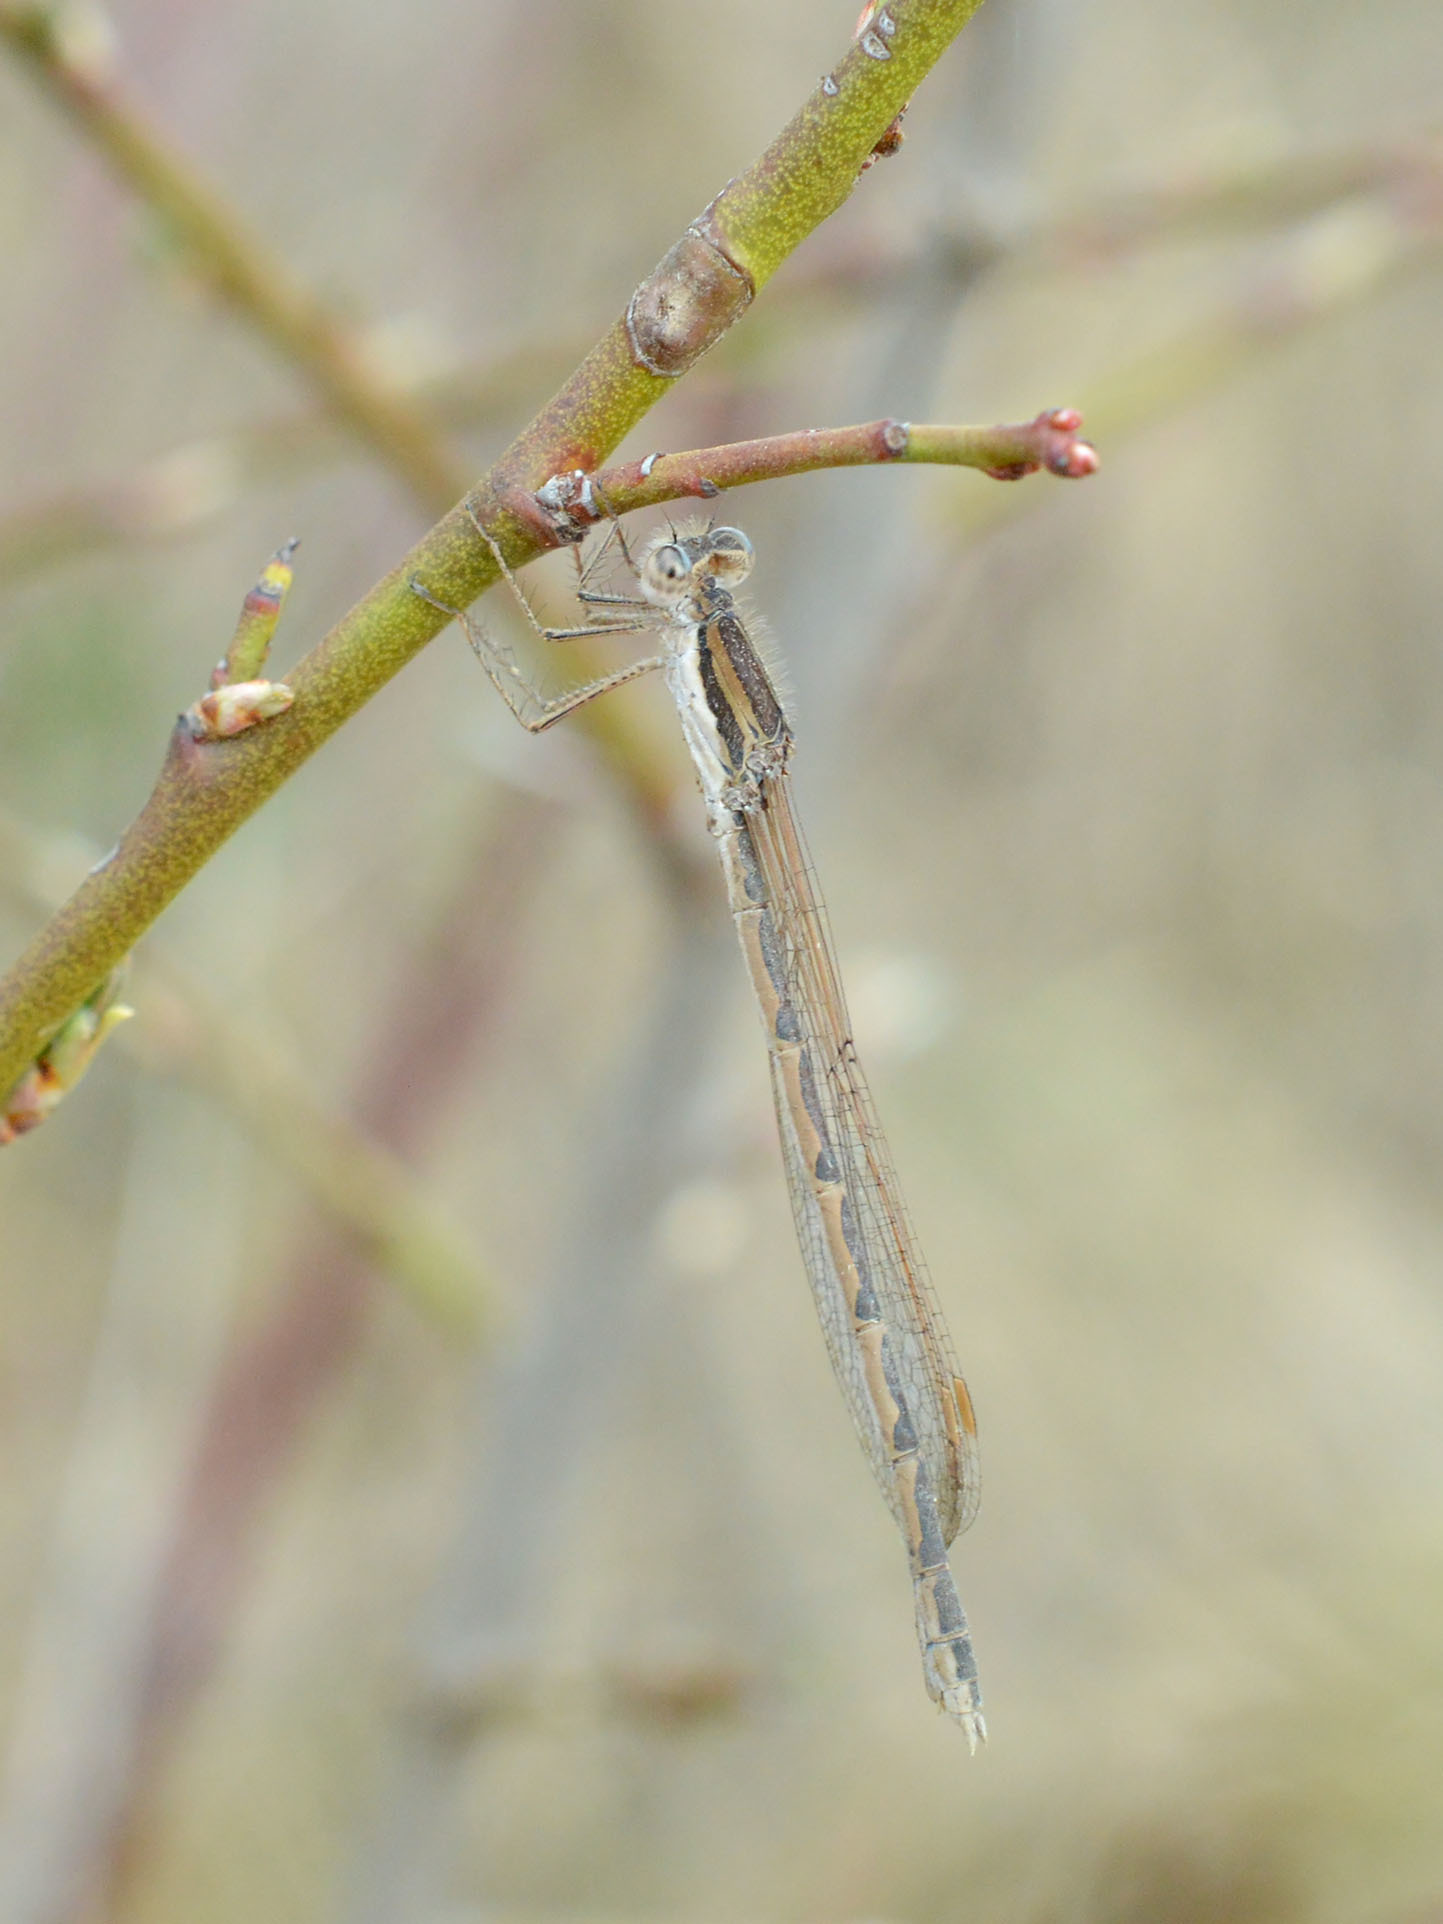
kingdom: Animalia
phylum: Arthropoda
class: Insecta
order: Odonata
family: Lestidae
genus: Sympecma
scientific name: Sympecma fusca
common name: Common winter damsel
